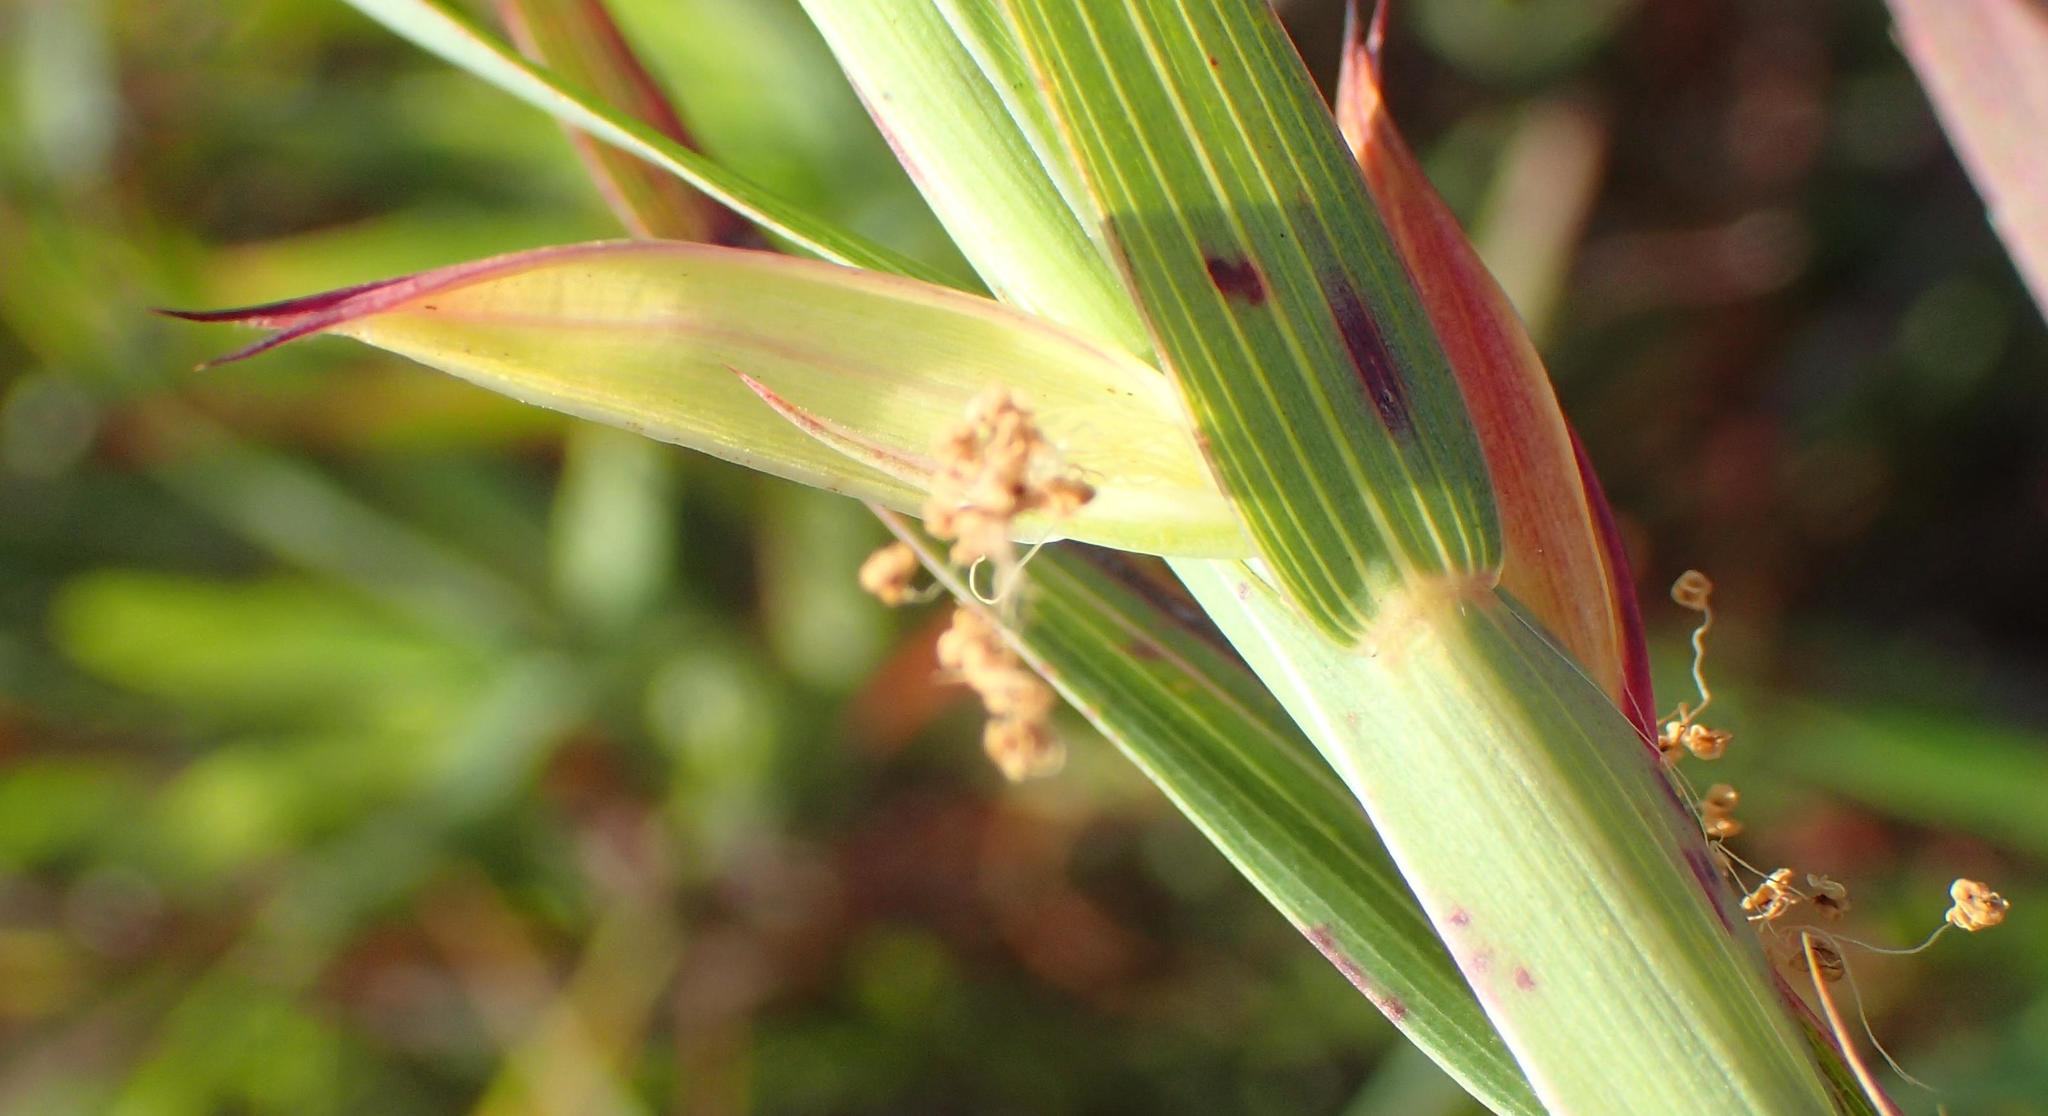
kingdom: Plantae
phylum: Tracheophyta
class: Magnoliopsida
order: Rosales
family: Rosaceae
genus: Cliffortia
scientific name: Cliffortia graminea
